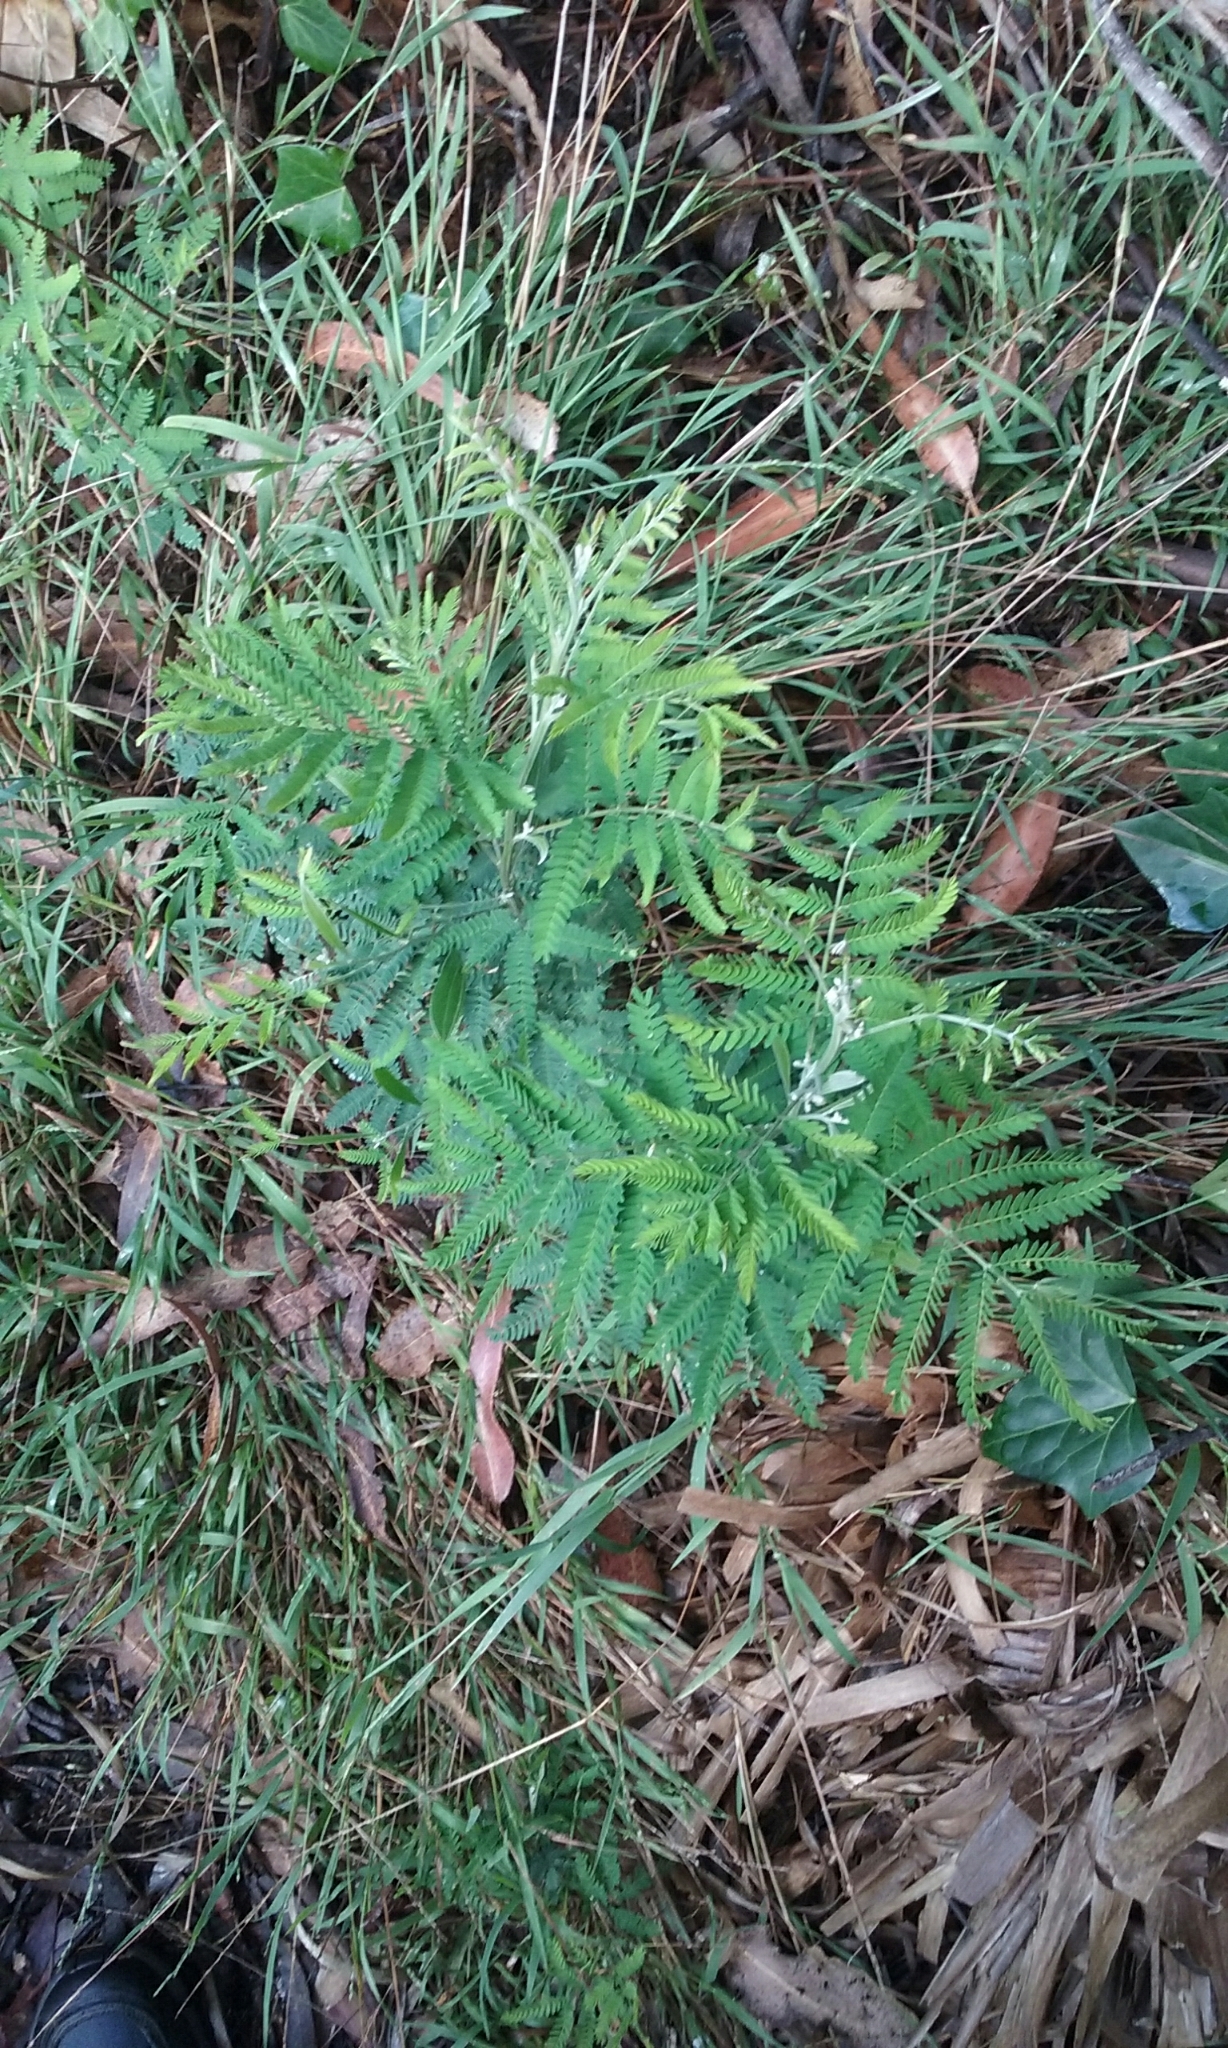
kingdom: Plantae
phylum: Tracheophyta
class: Magnoliopsida
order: Fabales
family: Fabaceae
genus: Acacia
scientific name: Acacia melanoxylon
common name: Blackwood
